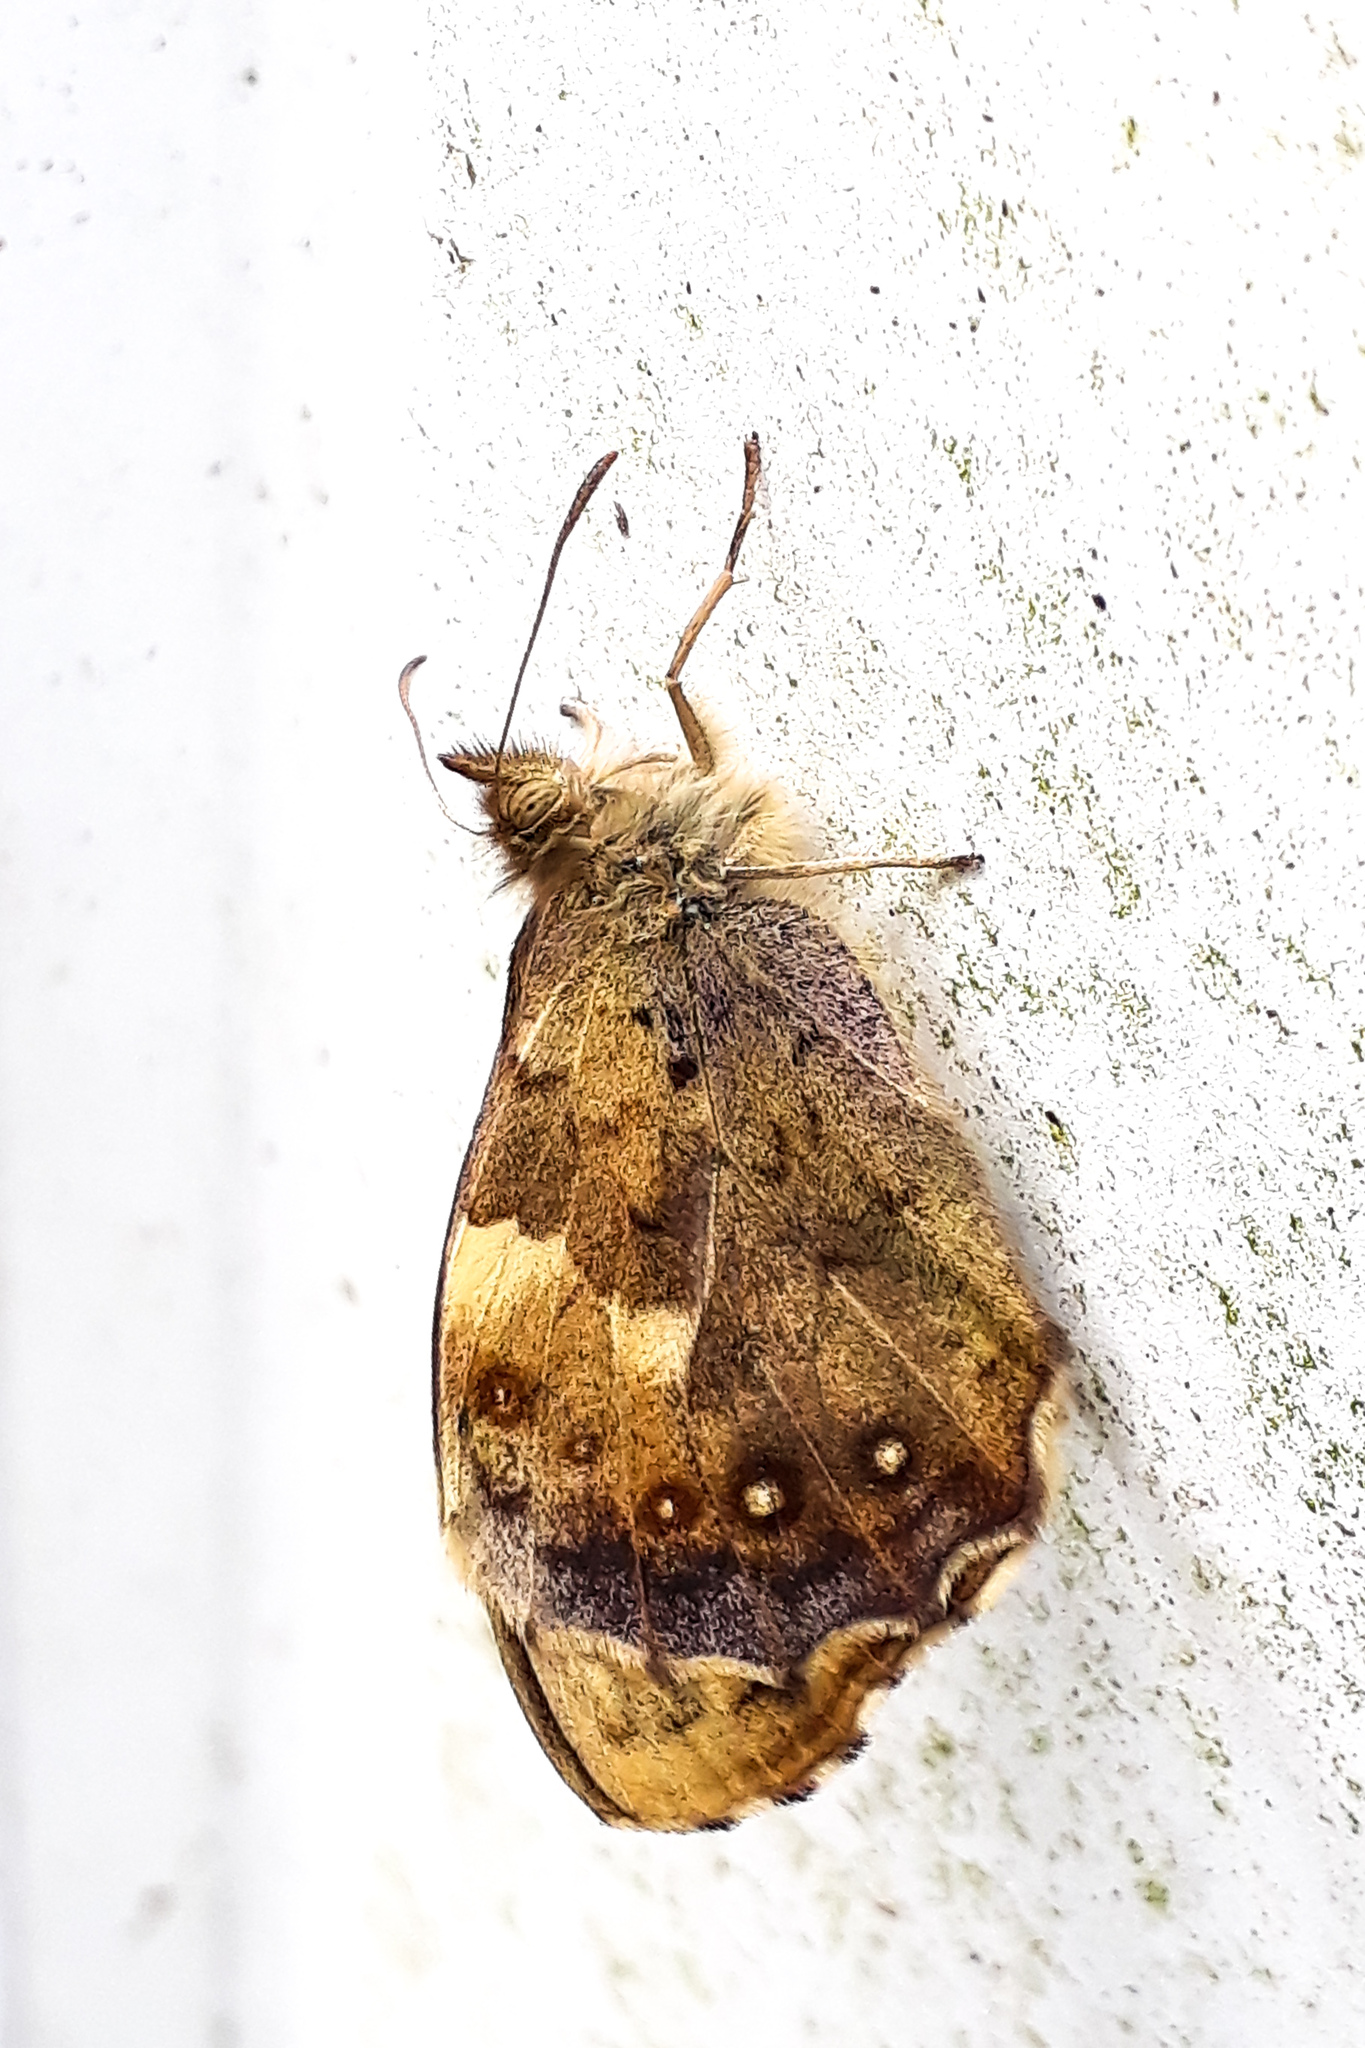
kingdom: Animalia
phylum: Arthropoda
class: Insecta
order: Lepidoptera
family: Nymphalidae
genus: Pararge
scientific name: Pararge aegeria
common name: Speckled wood
